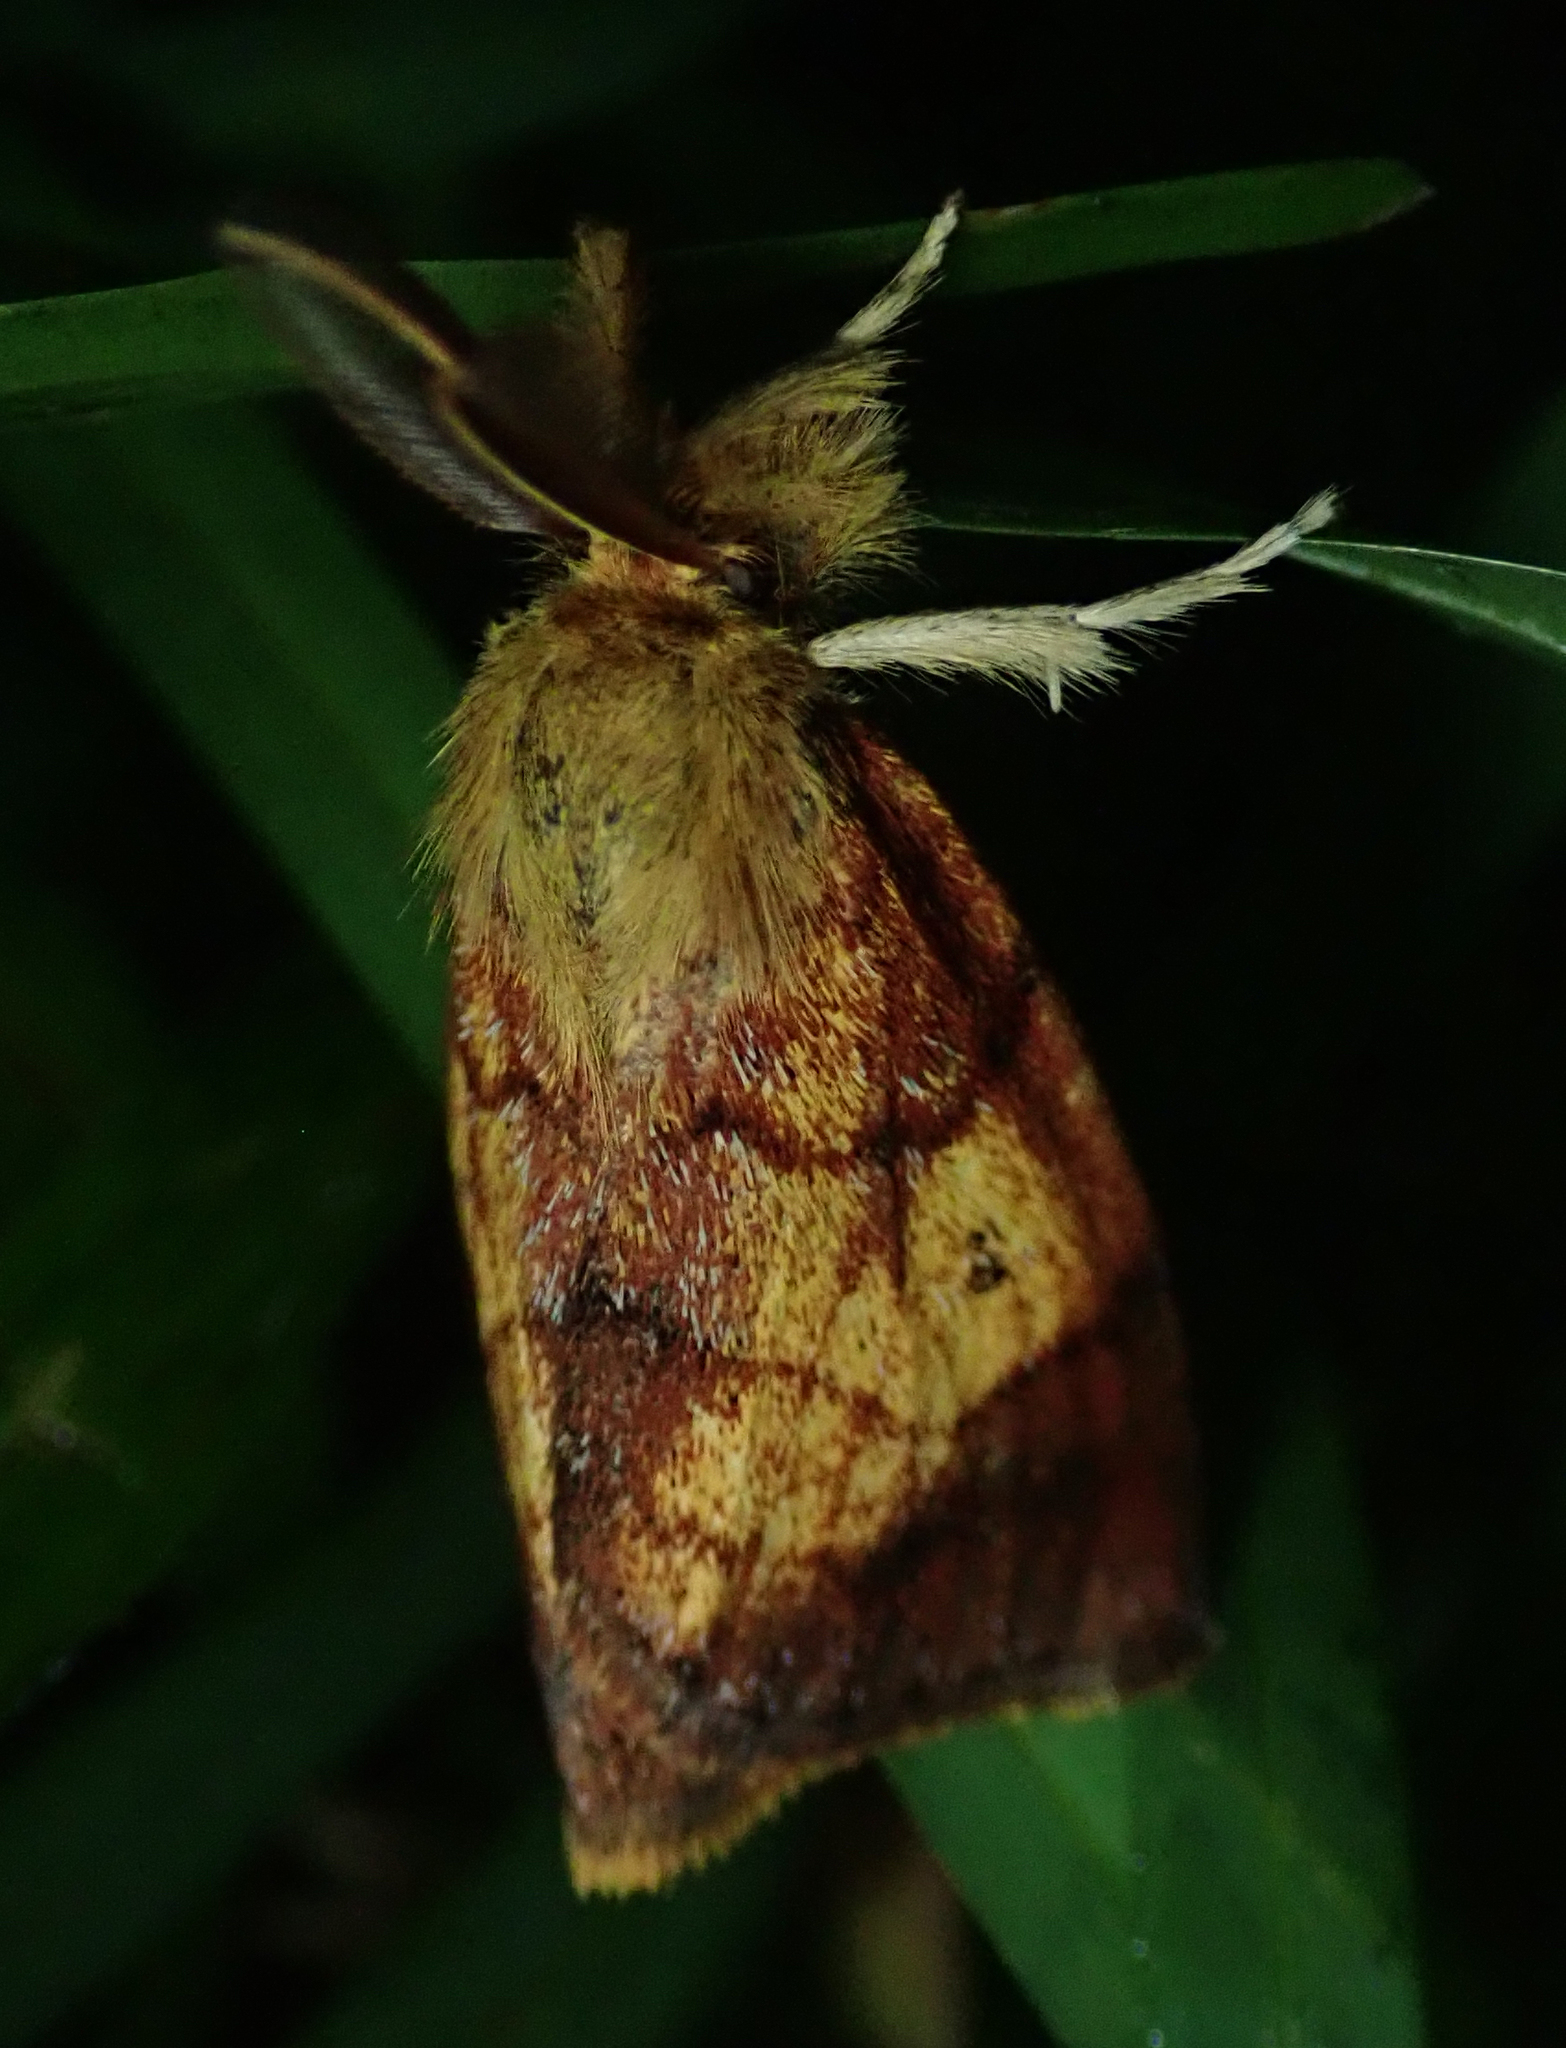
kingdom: Animalia
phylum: Arthropoda
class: Insecta
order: Lepidoptera
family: Erebidae
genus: Aroa
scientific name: Aroa discalis
